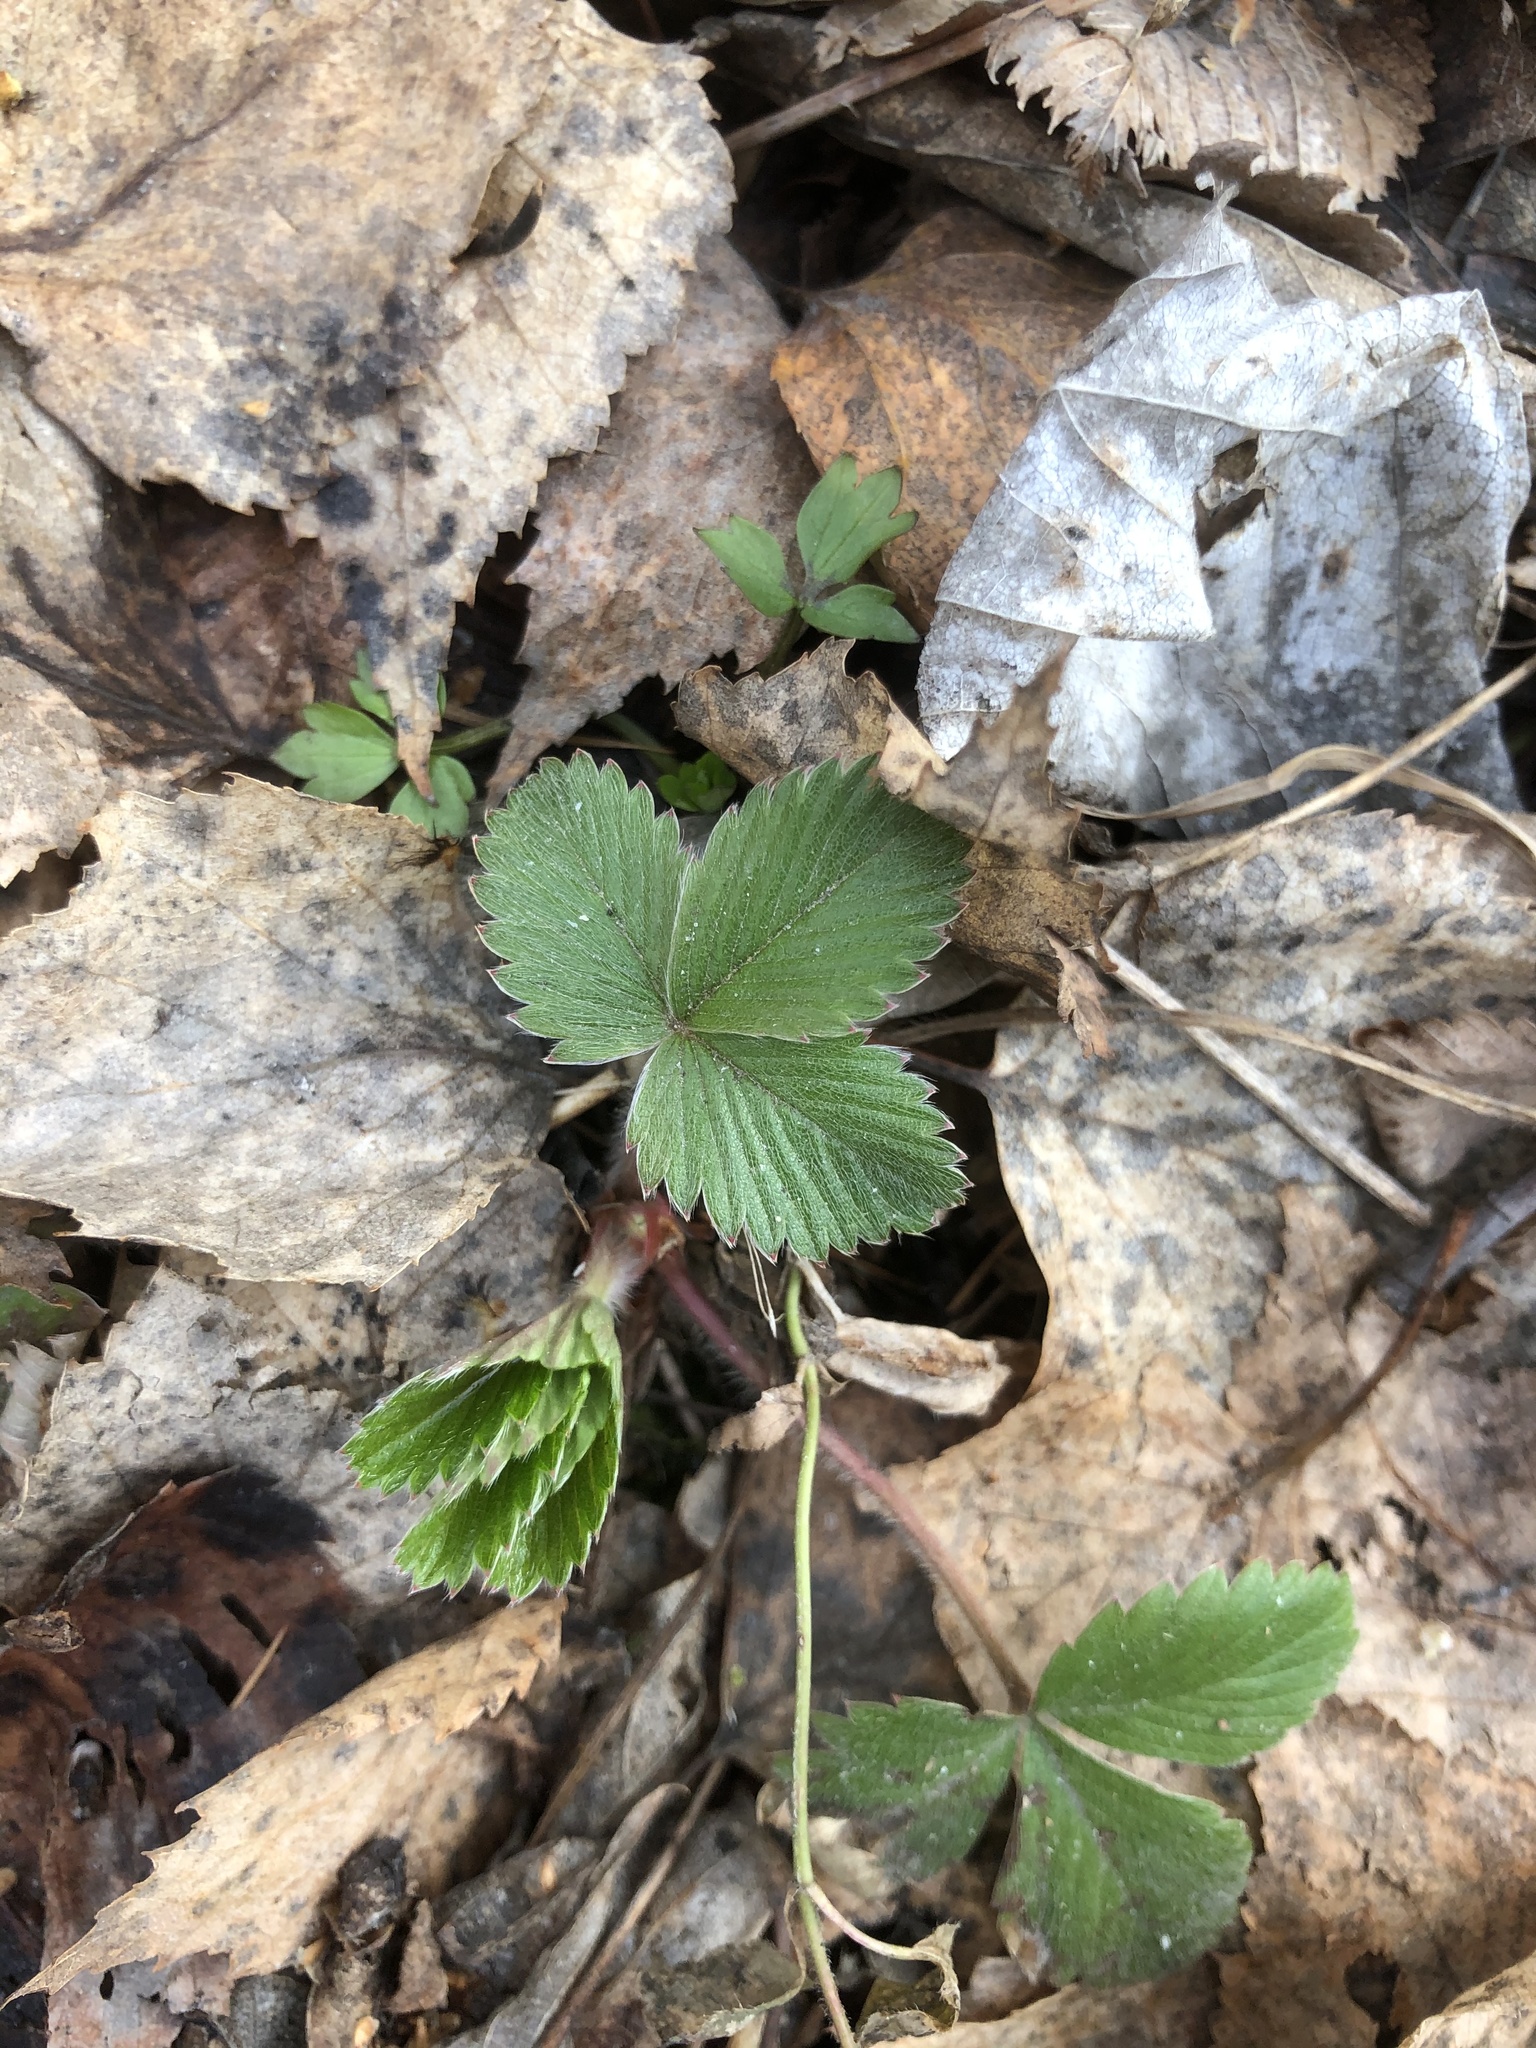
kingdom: Plantae
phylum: Tracheophyta
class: Magnoliopsida
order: Rosales
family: Rosaceae
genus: Fragaria
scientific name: Fragaria viridis
